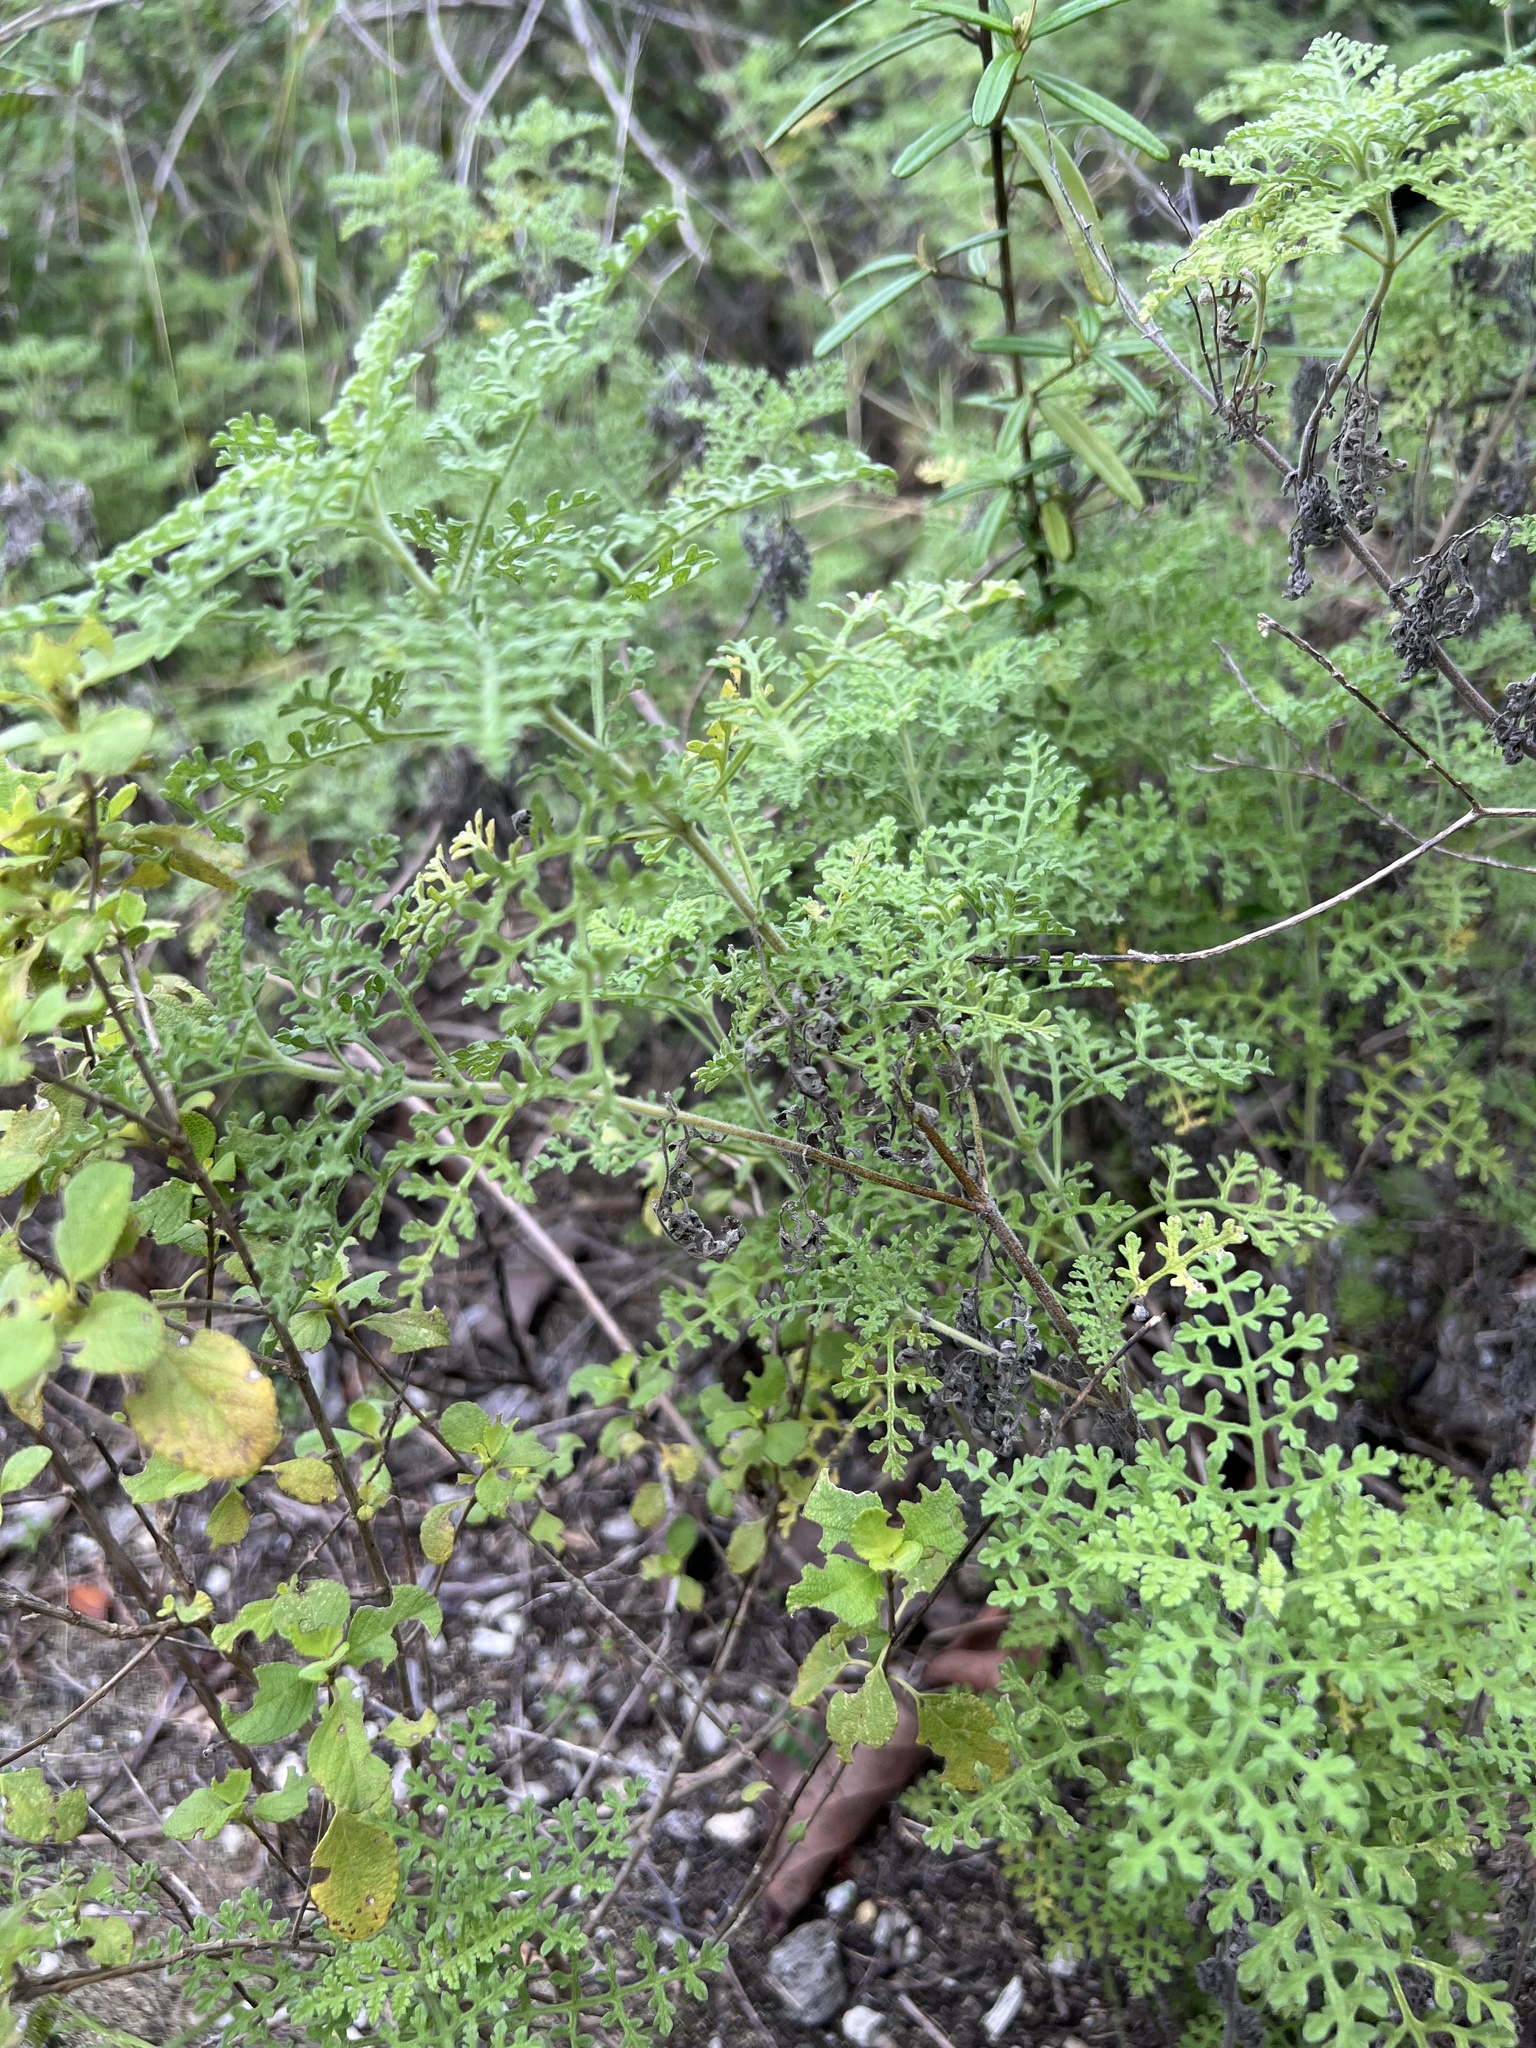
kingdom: Plantae
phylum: Tracheophyta
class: Magnoliopsida
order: Asterales
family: Asteraceae
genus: Ambrosia
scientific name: Ambrosia hispida
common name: Coastal ragweed
